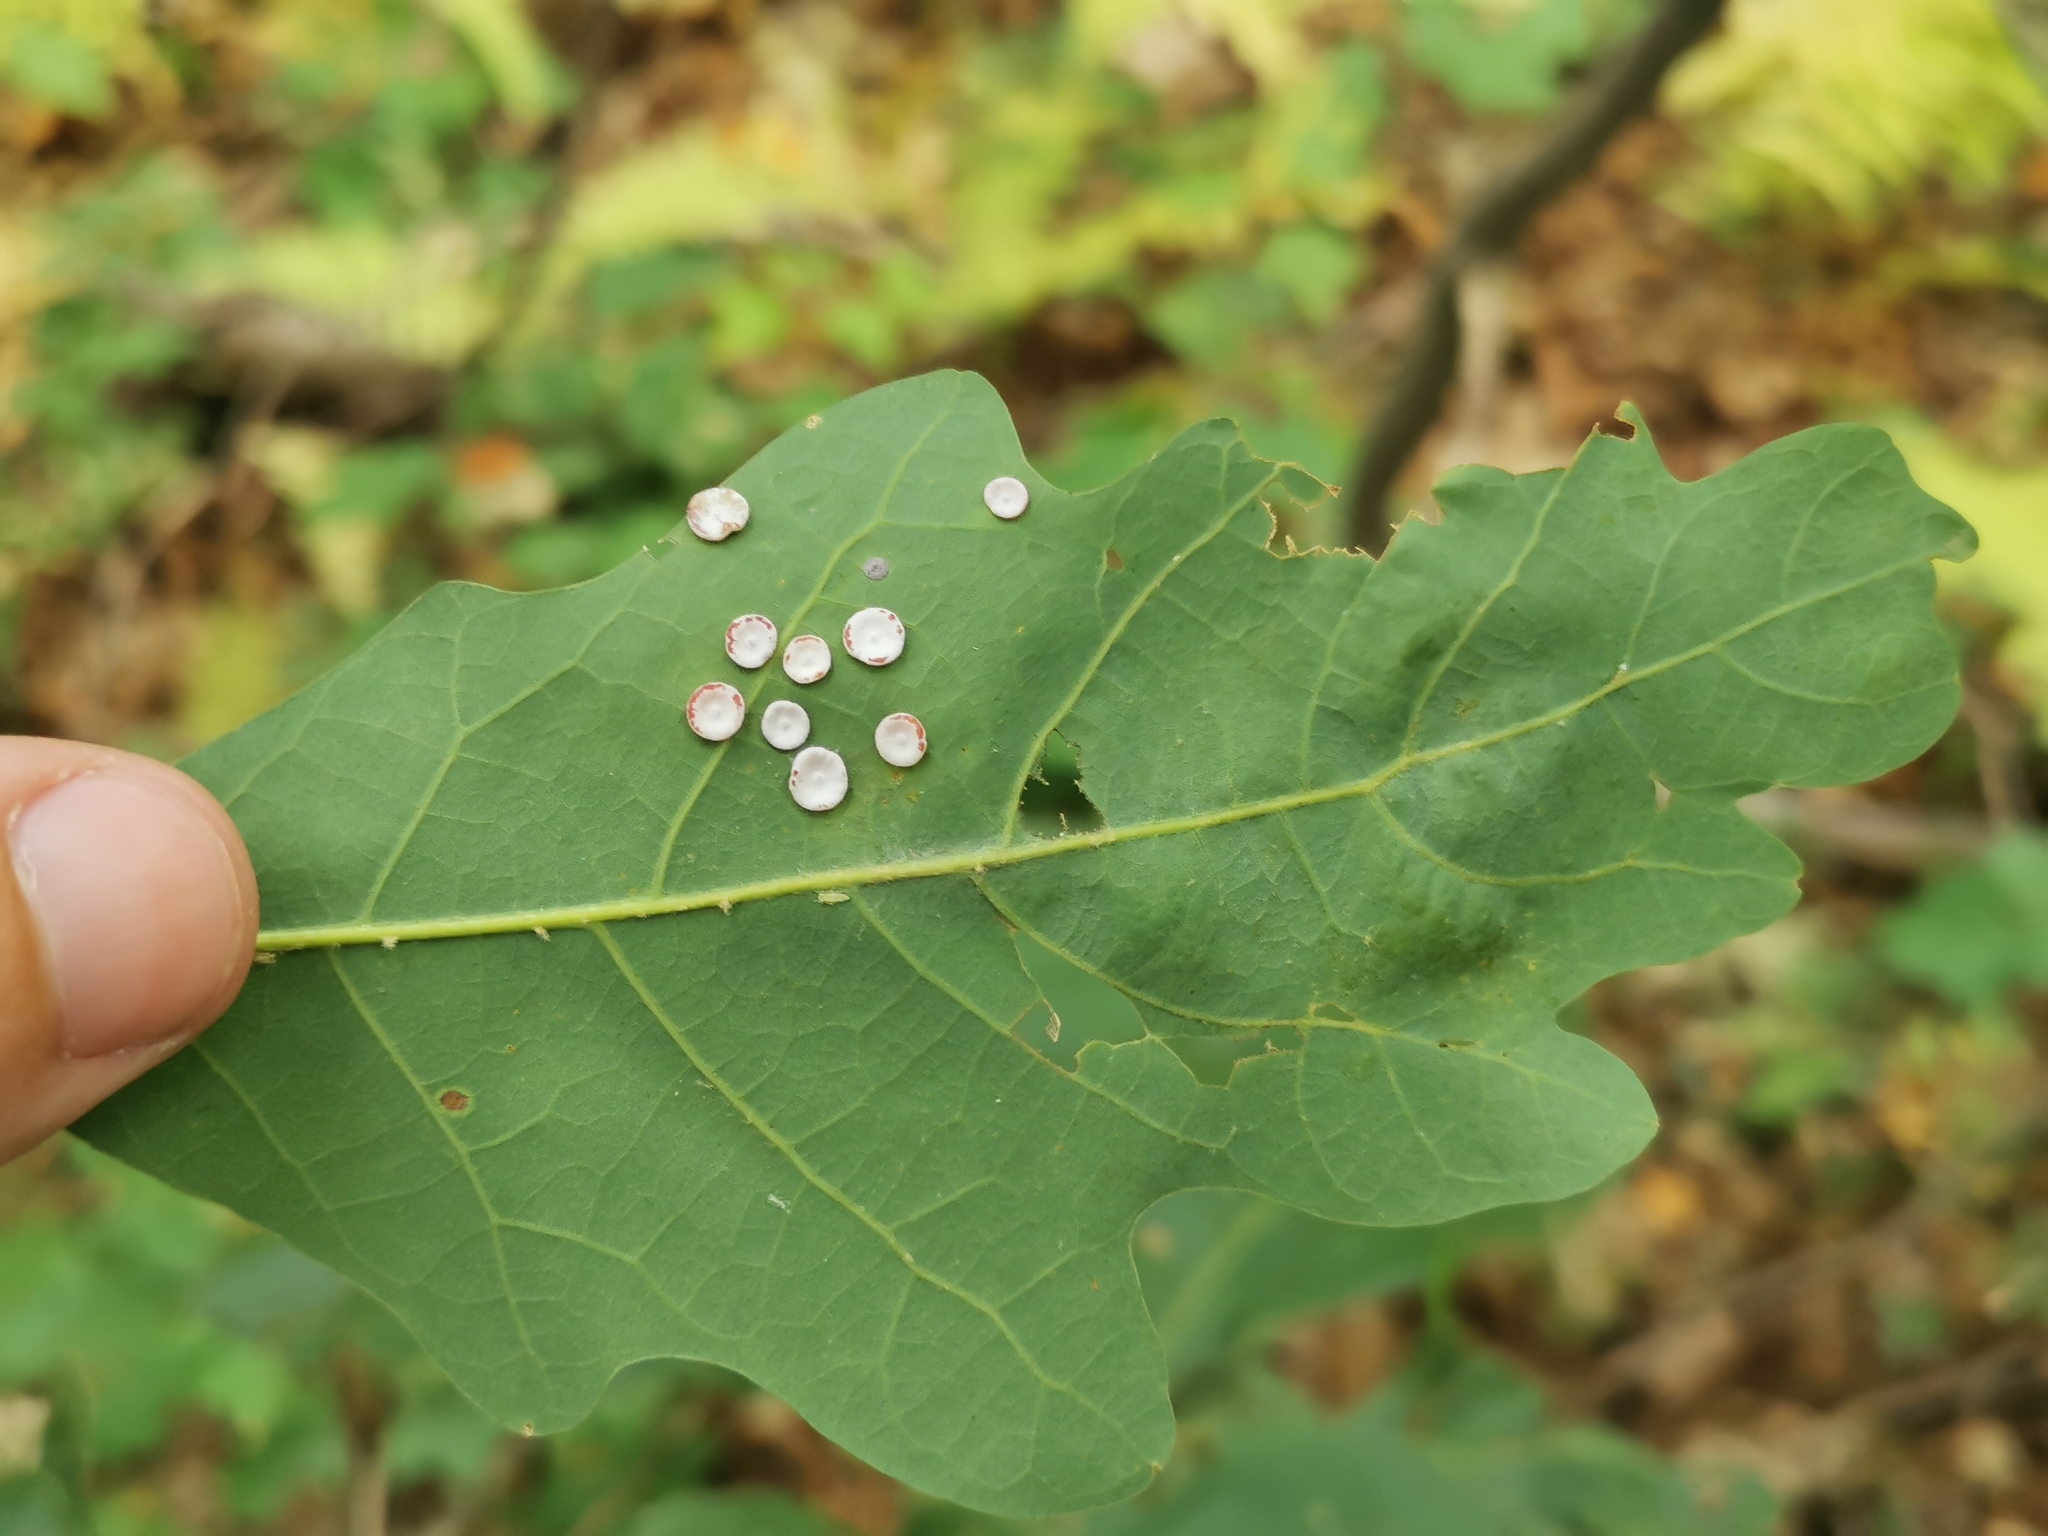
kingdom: Animalia
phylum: Arthropoda
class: Insecta
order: Hymenoptera
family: Cynipidae
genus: Phylloteras
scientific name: Phylloteras poculum
